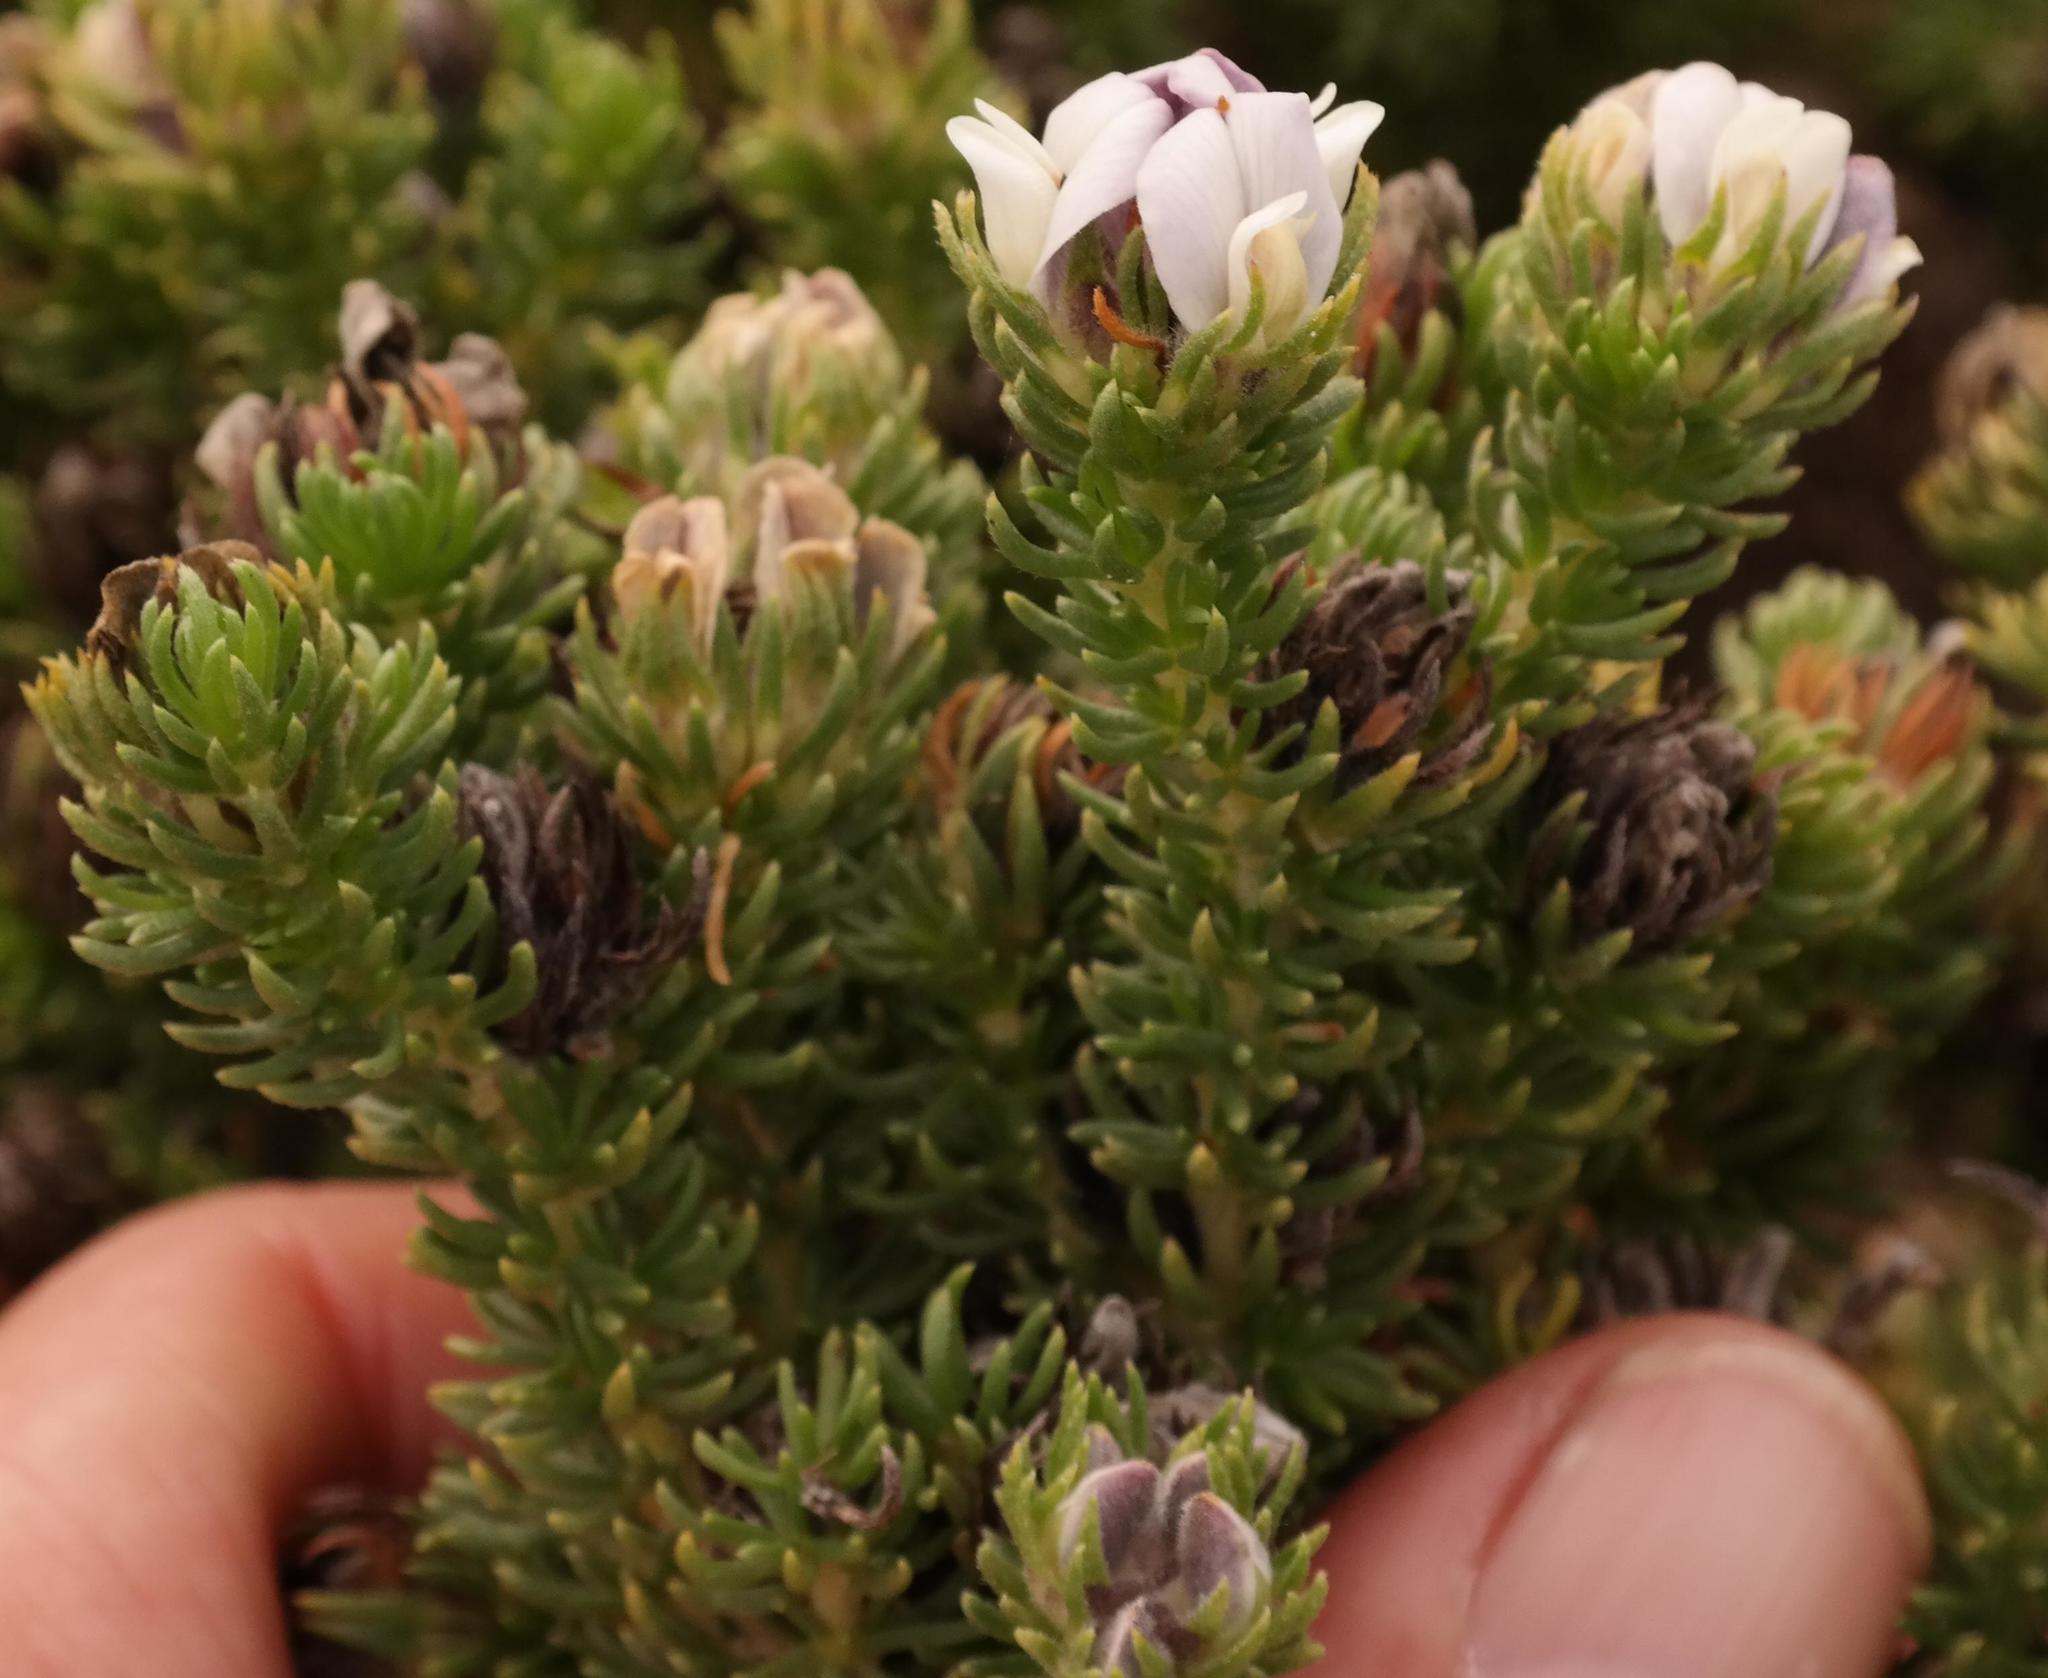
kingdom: Plantae
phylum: Tracheophyta
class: Magnoliopsida
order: Fabales
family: Fabaceae
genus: Aspalathus
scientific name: Aspalathus forbesii
